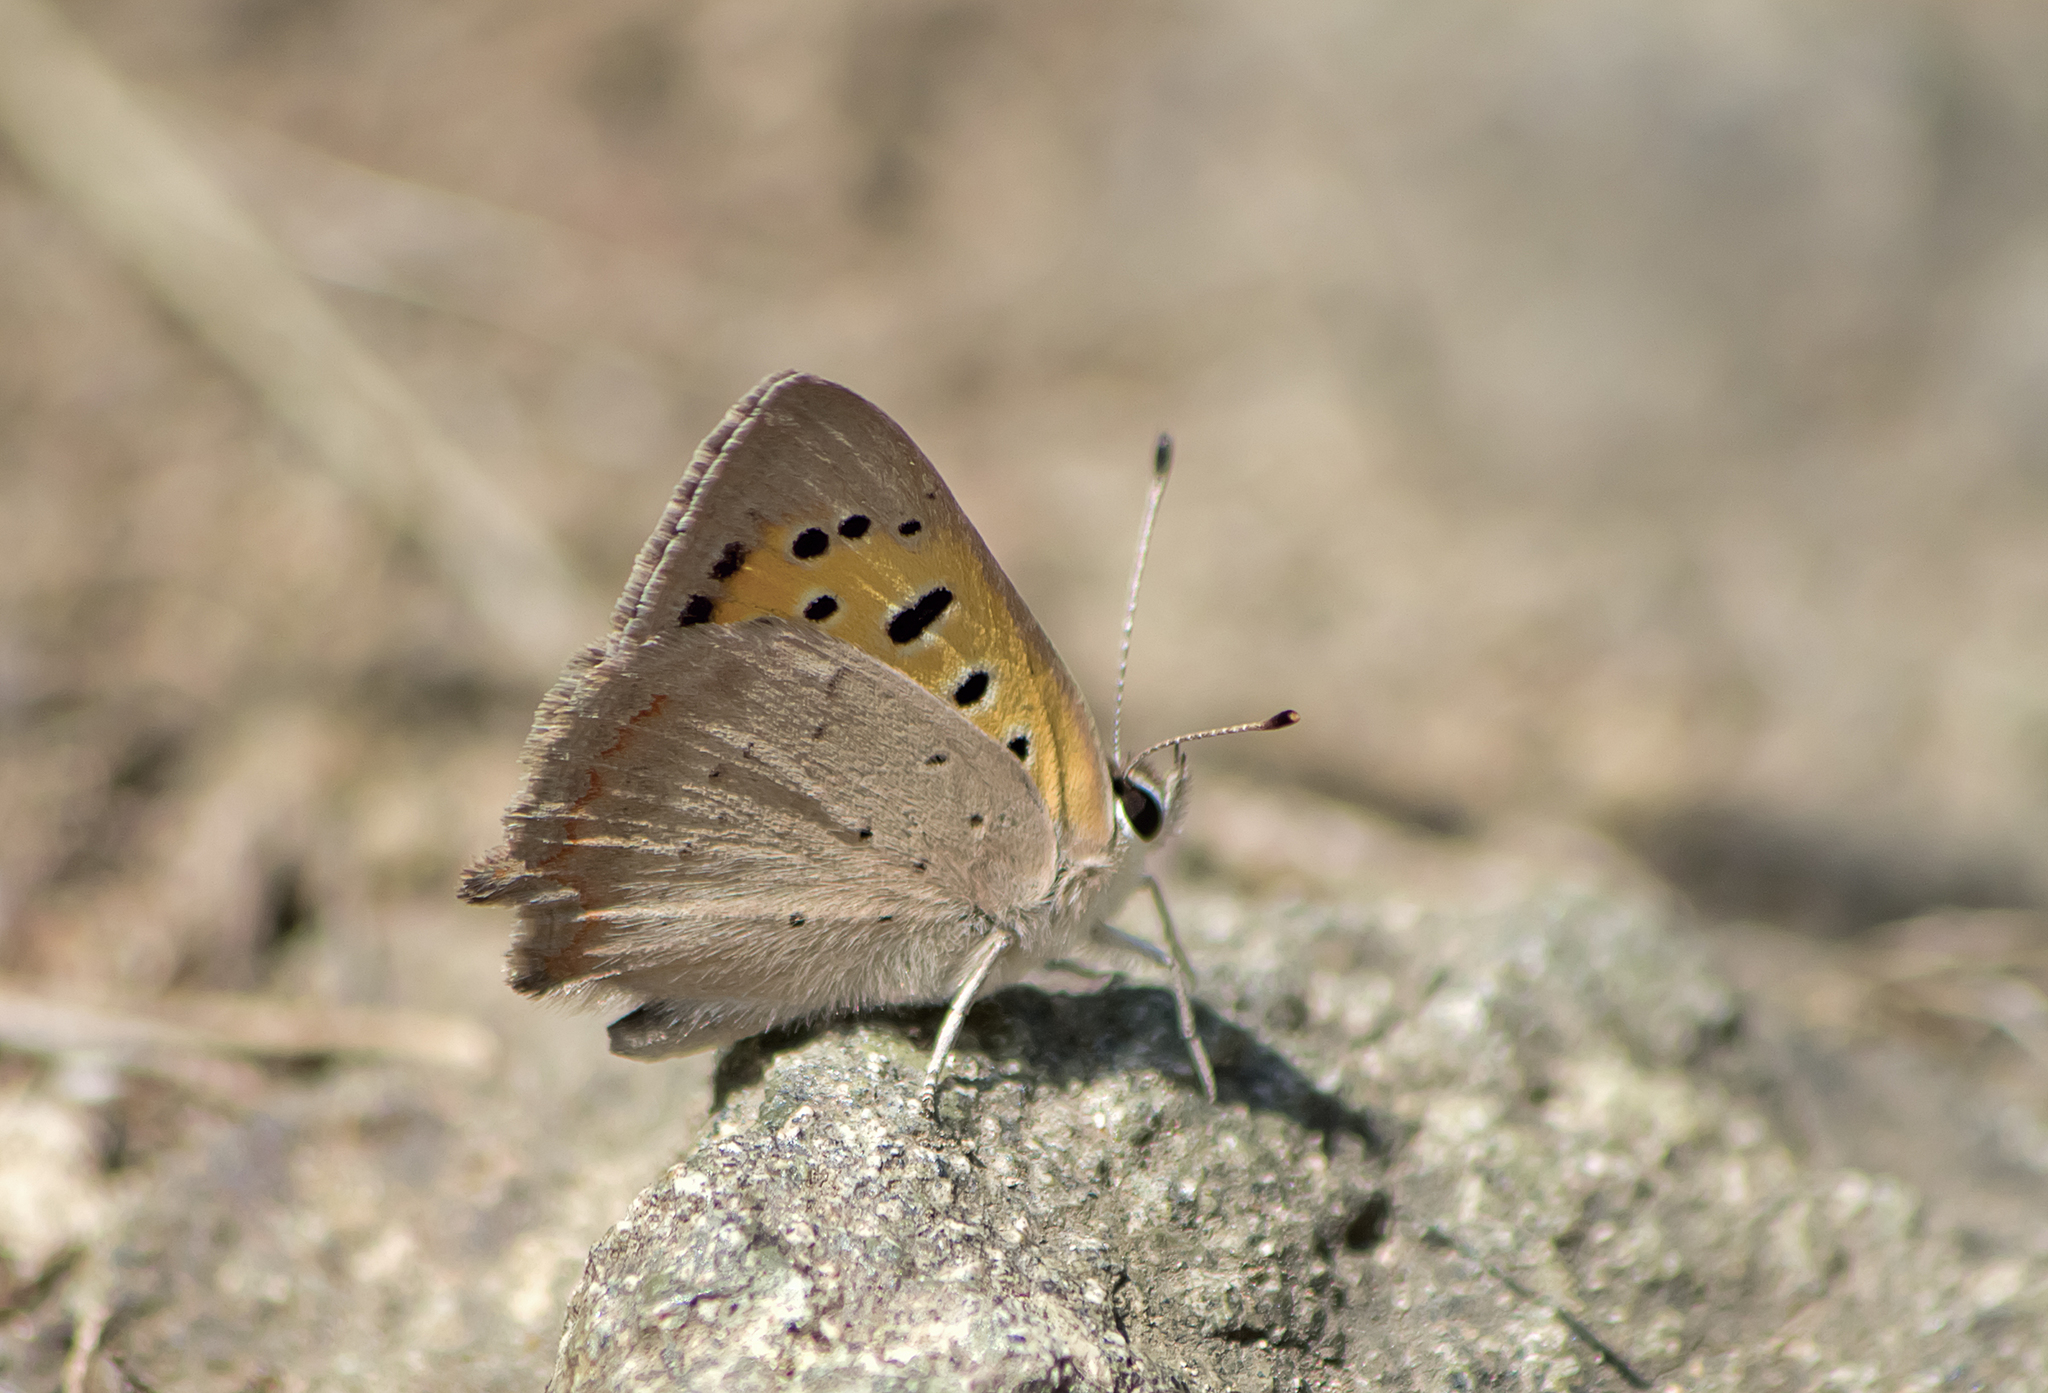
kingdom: Animalia
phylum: Arthropoda
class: Insecta
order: Lepidoptera
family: Lycaenidae
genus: Lycaena
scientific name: Lycaena phlaeas
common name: Small copper
